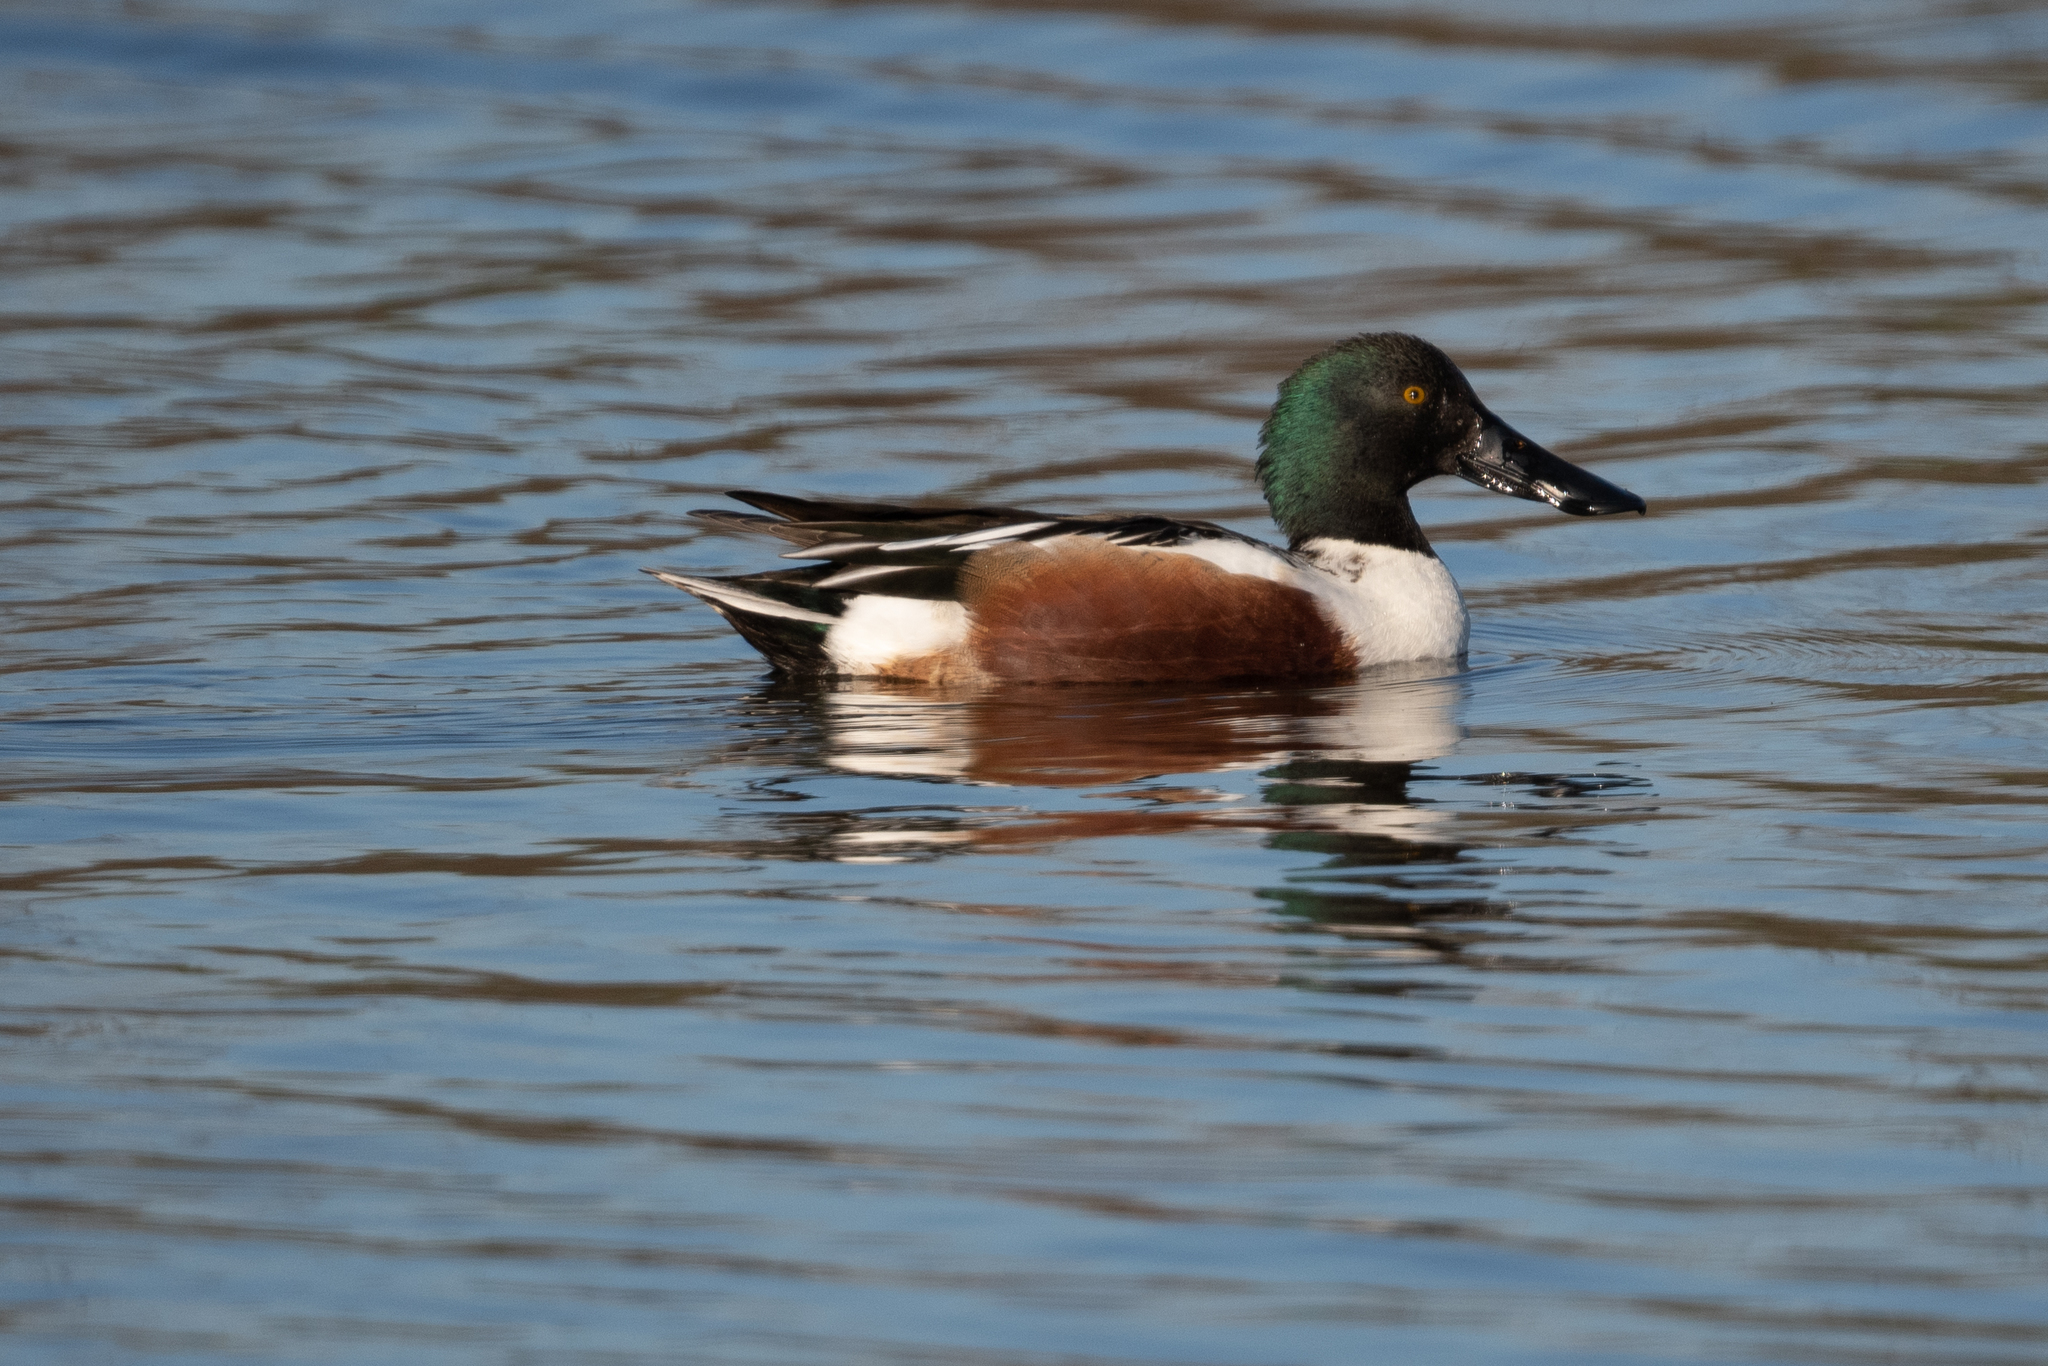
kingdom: Animalia
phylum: Chordata
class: Aves
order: Anseriformes
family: Anatidae
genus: Spatula
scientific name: Spatula clypeata
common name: Northern shoveler
